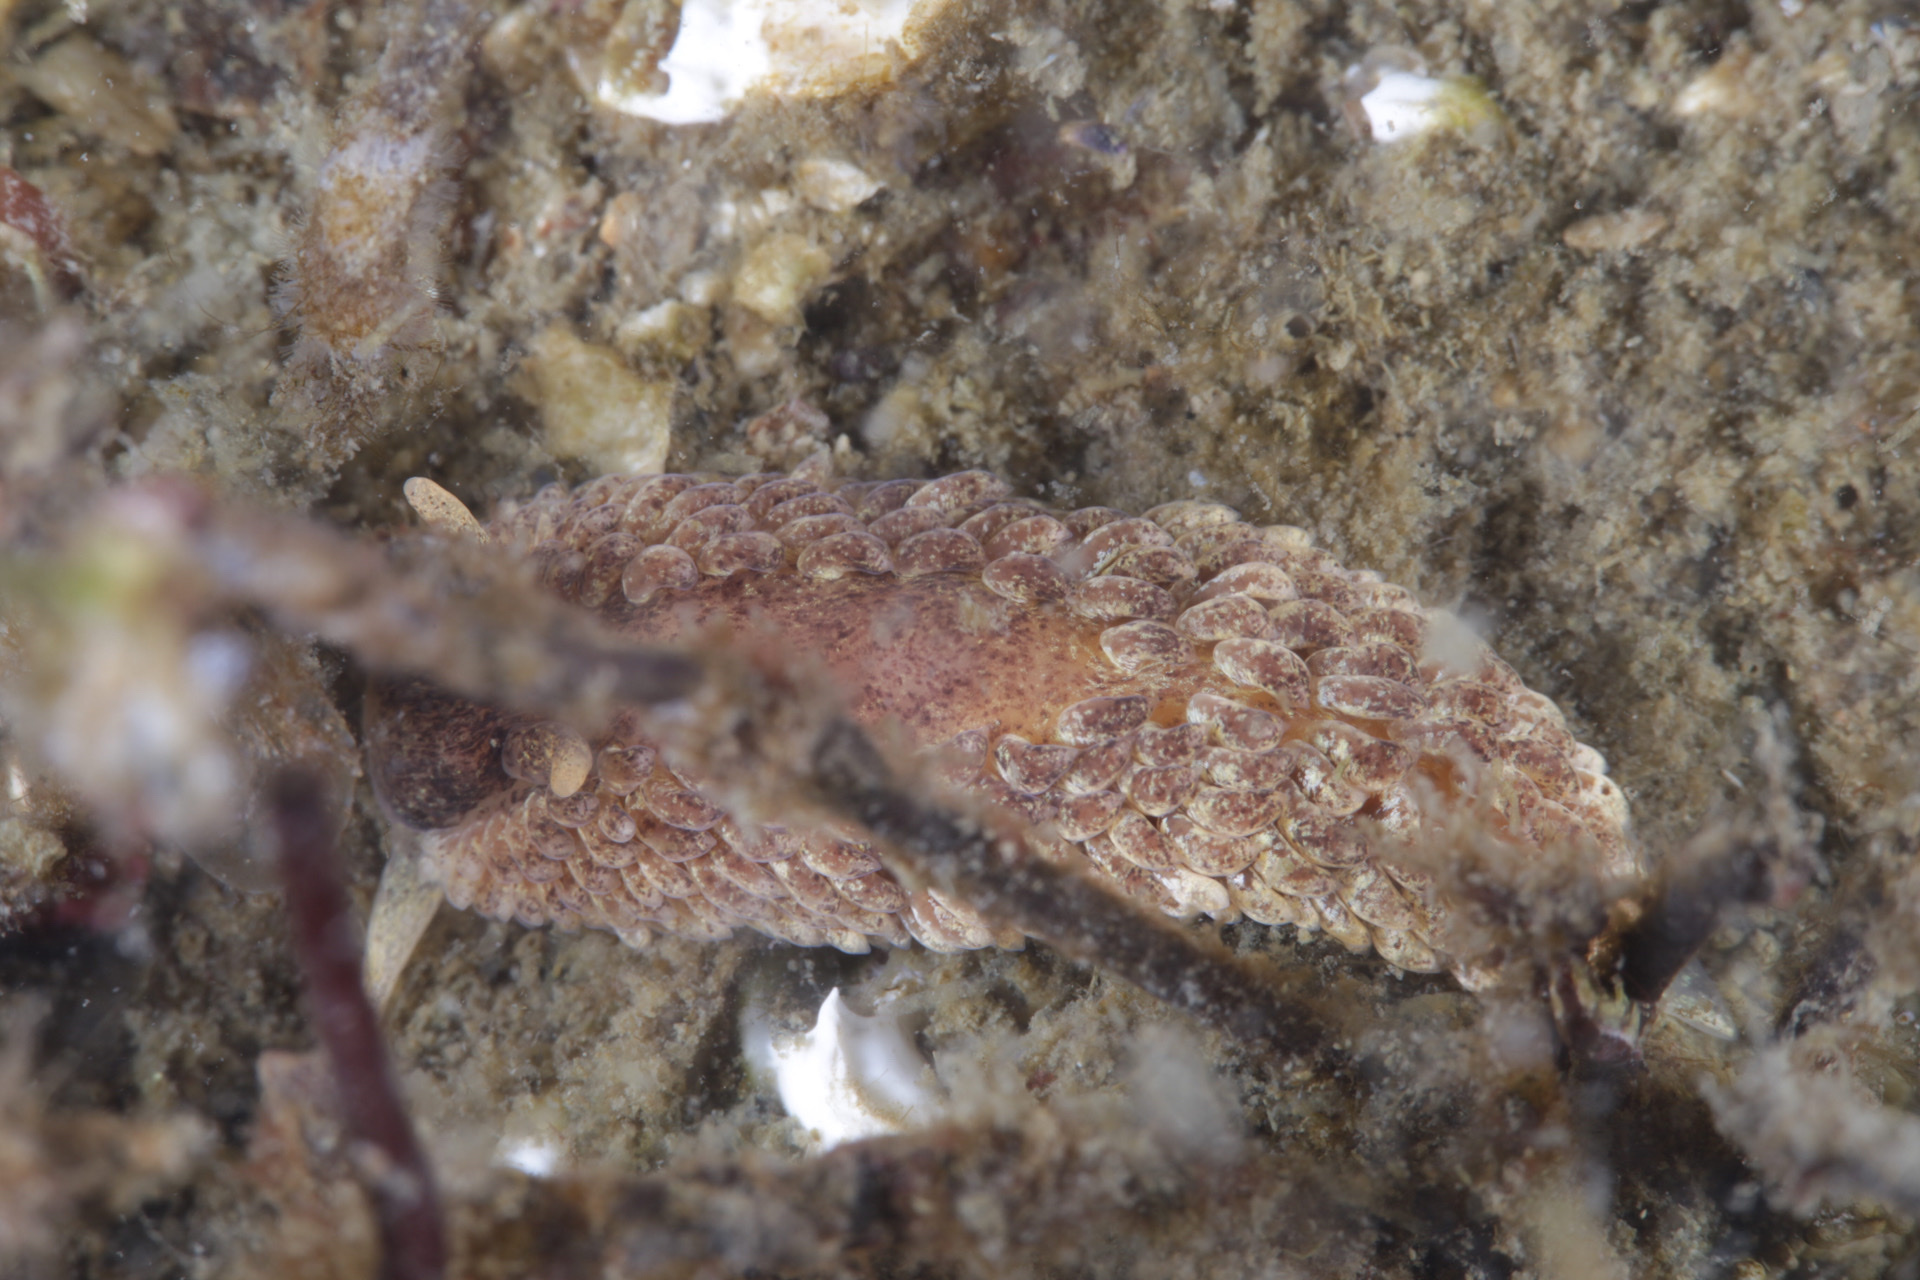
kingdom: Animalia
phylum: Mollusca
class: Gastropoda
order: Nudibranchia
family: Aeolidiidae
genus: Aeolidia
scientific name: Aeolidia papillosa
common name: Common grey sea slug
